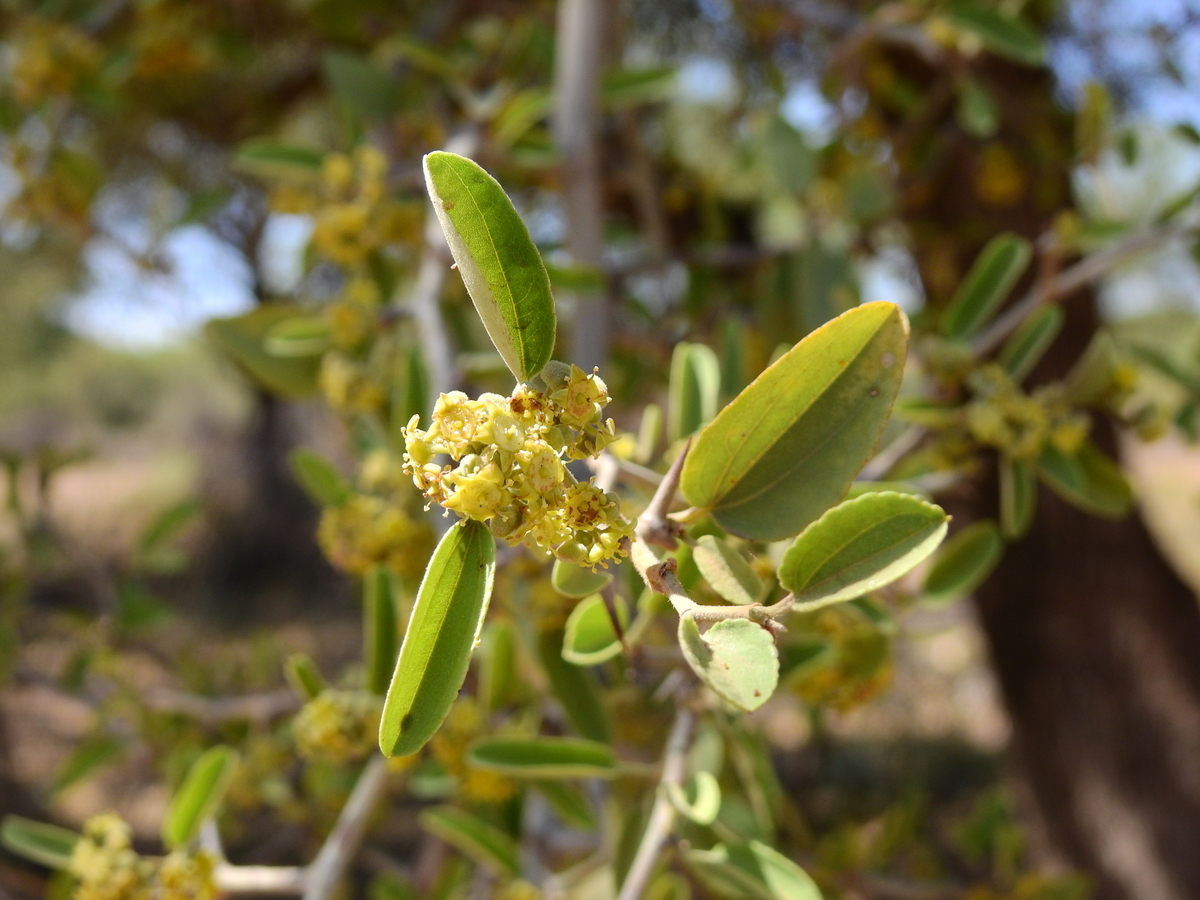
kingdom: Plantae
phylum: Tracheophyta
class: Magnoliopsida
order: Rosales
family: Rhamnaceae
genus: Sarcomphalus
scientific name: Sarcomphalus mistol
